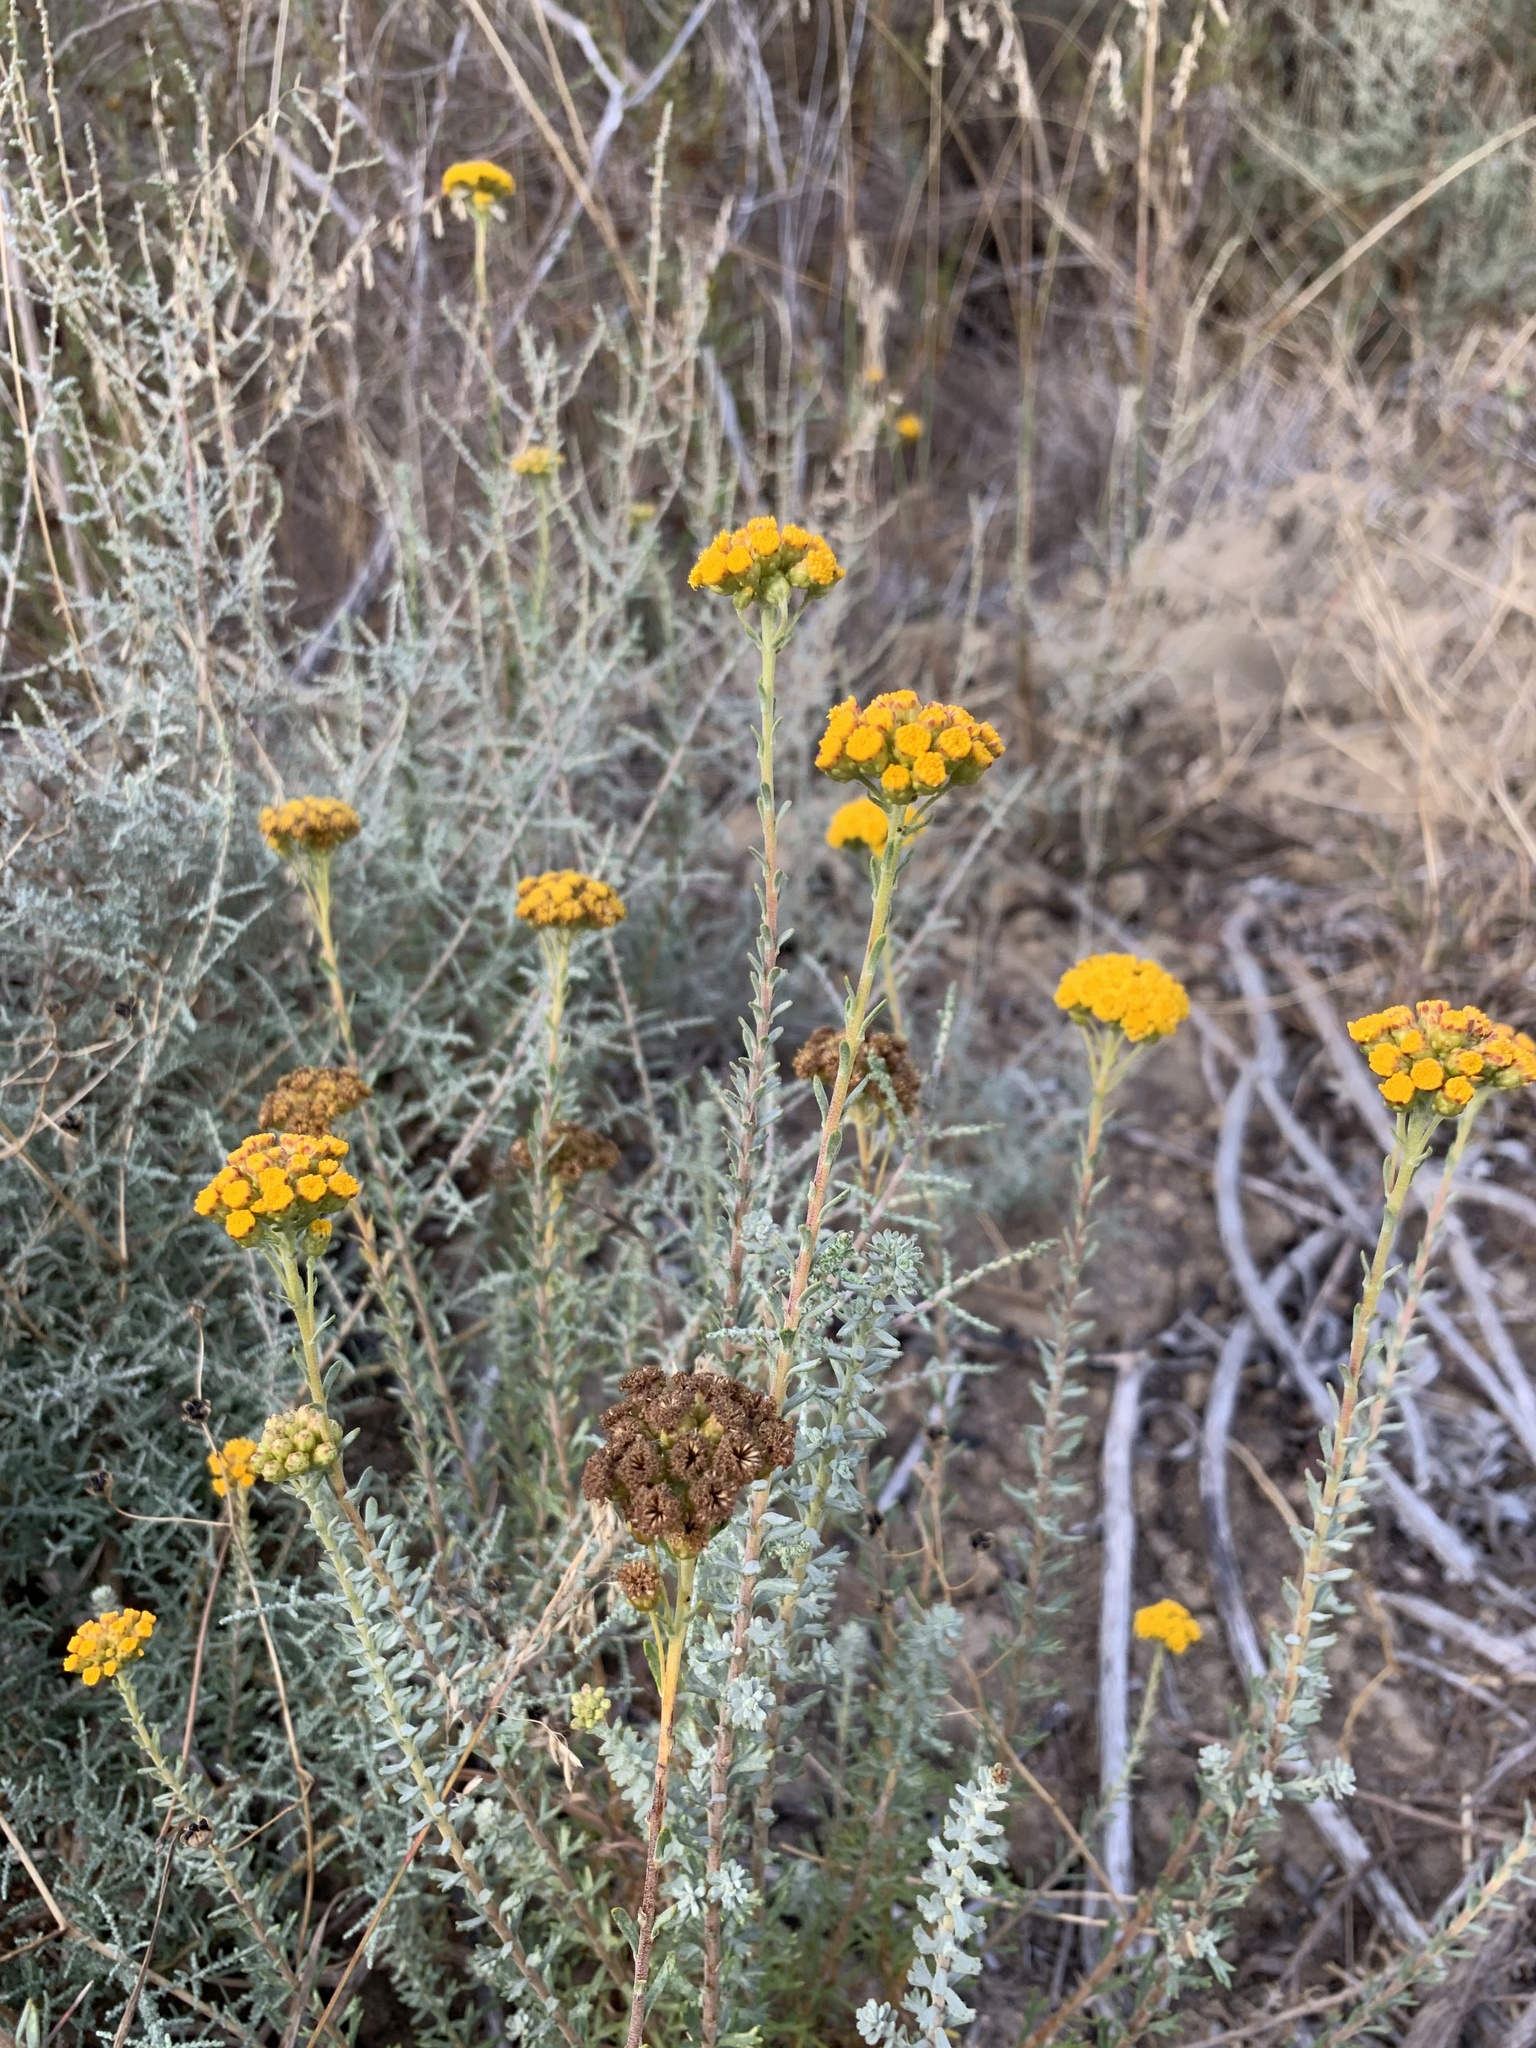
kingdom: Plantae
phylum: Tracheophyta
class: Magnoliopsida
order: Asterales
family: Asteraceae
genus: Athanasia
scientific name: Athanasia trifurcata
